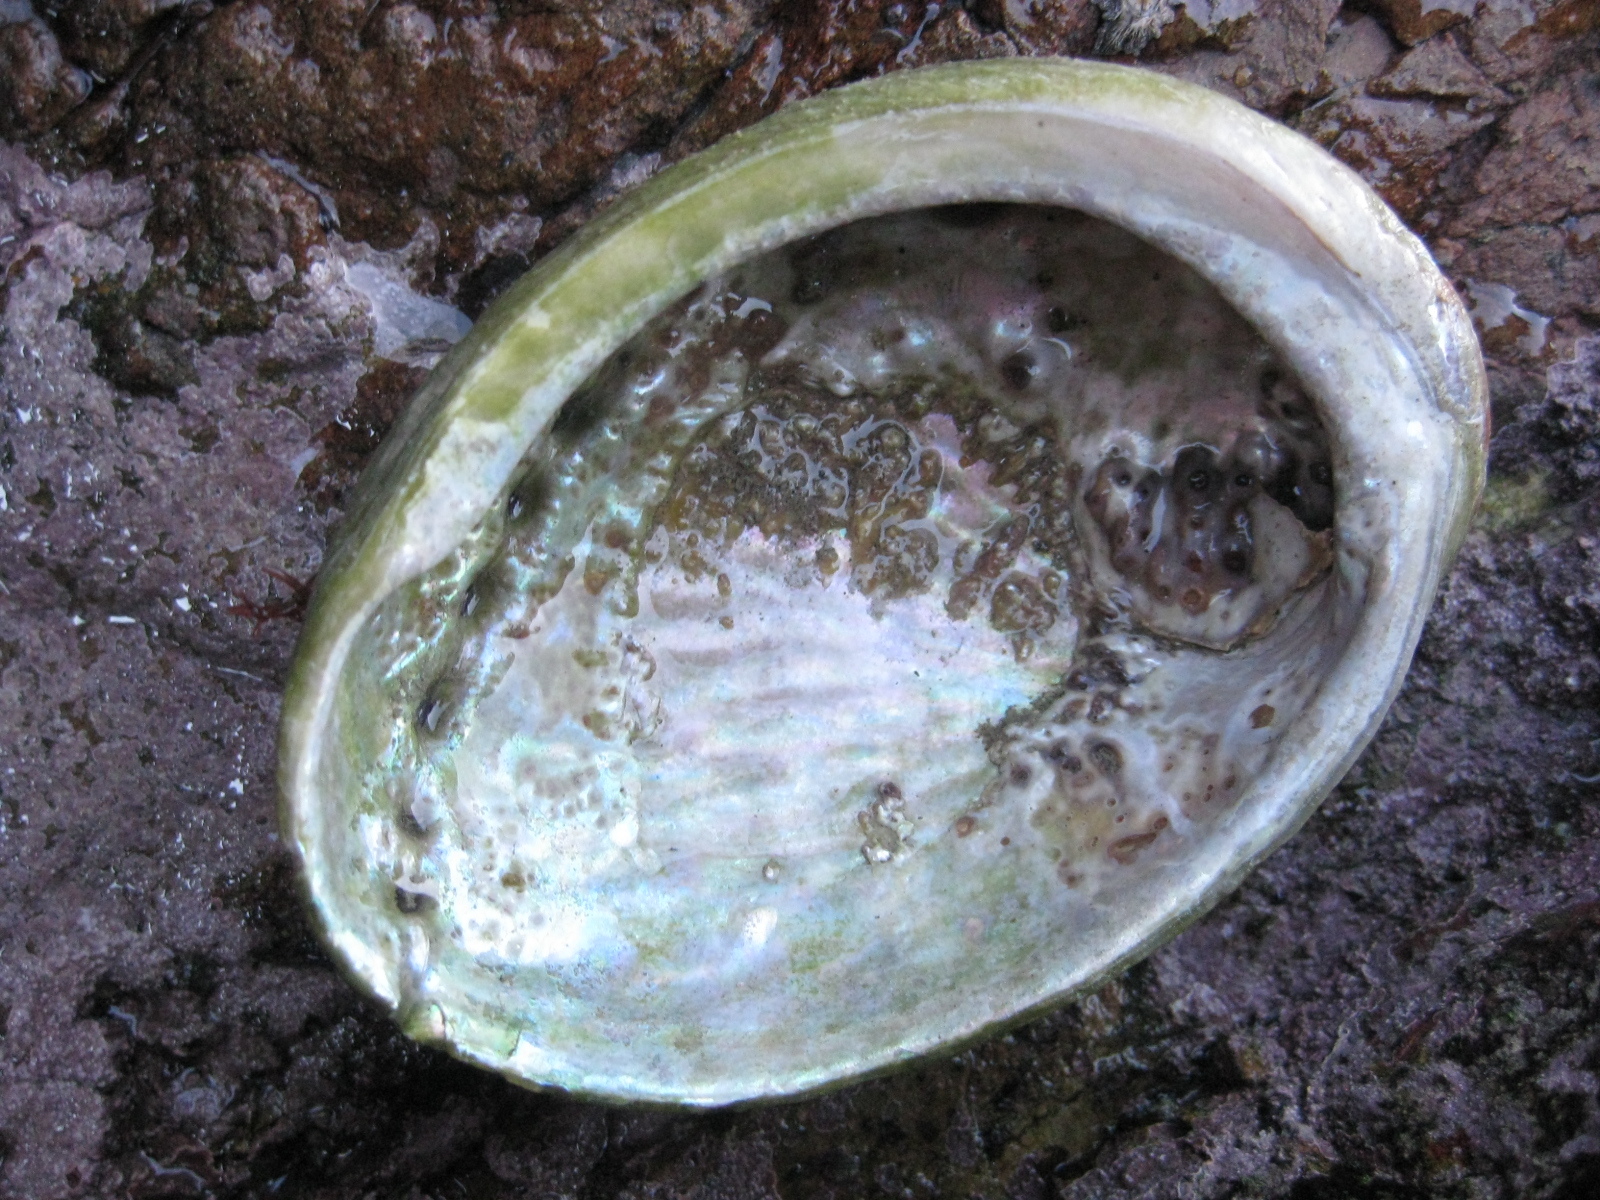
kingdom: Animalia
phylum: Mollusca
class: Gastropoda
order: Lepetellida
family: Haliotidae
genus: Haliotis
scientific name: Haliotis australis
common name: Silver abalone
